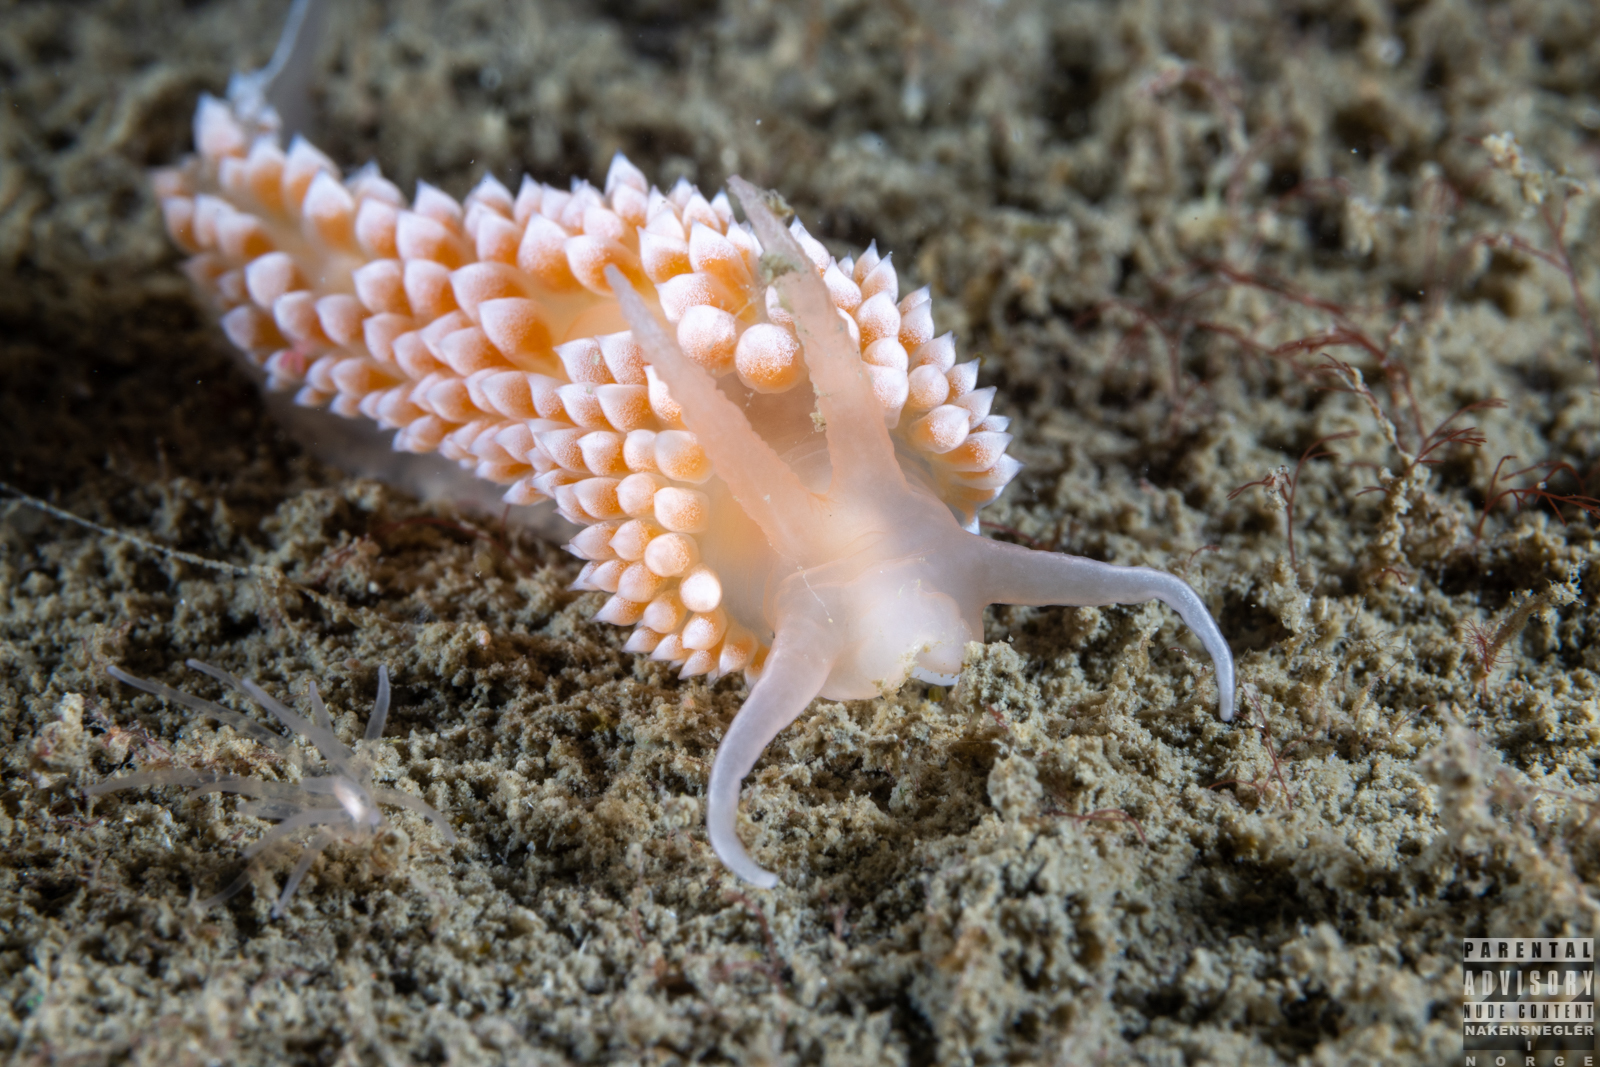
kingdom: Animalia
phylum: Mollusca
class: Gastropoda
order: Nudibranchia
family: Coryphellidae
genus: Coryphella
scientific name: Coryphella verrucosa
